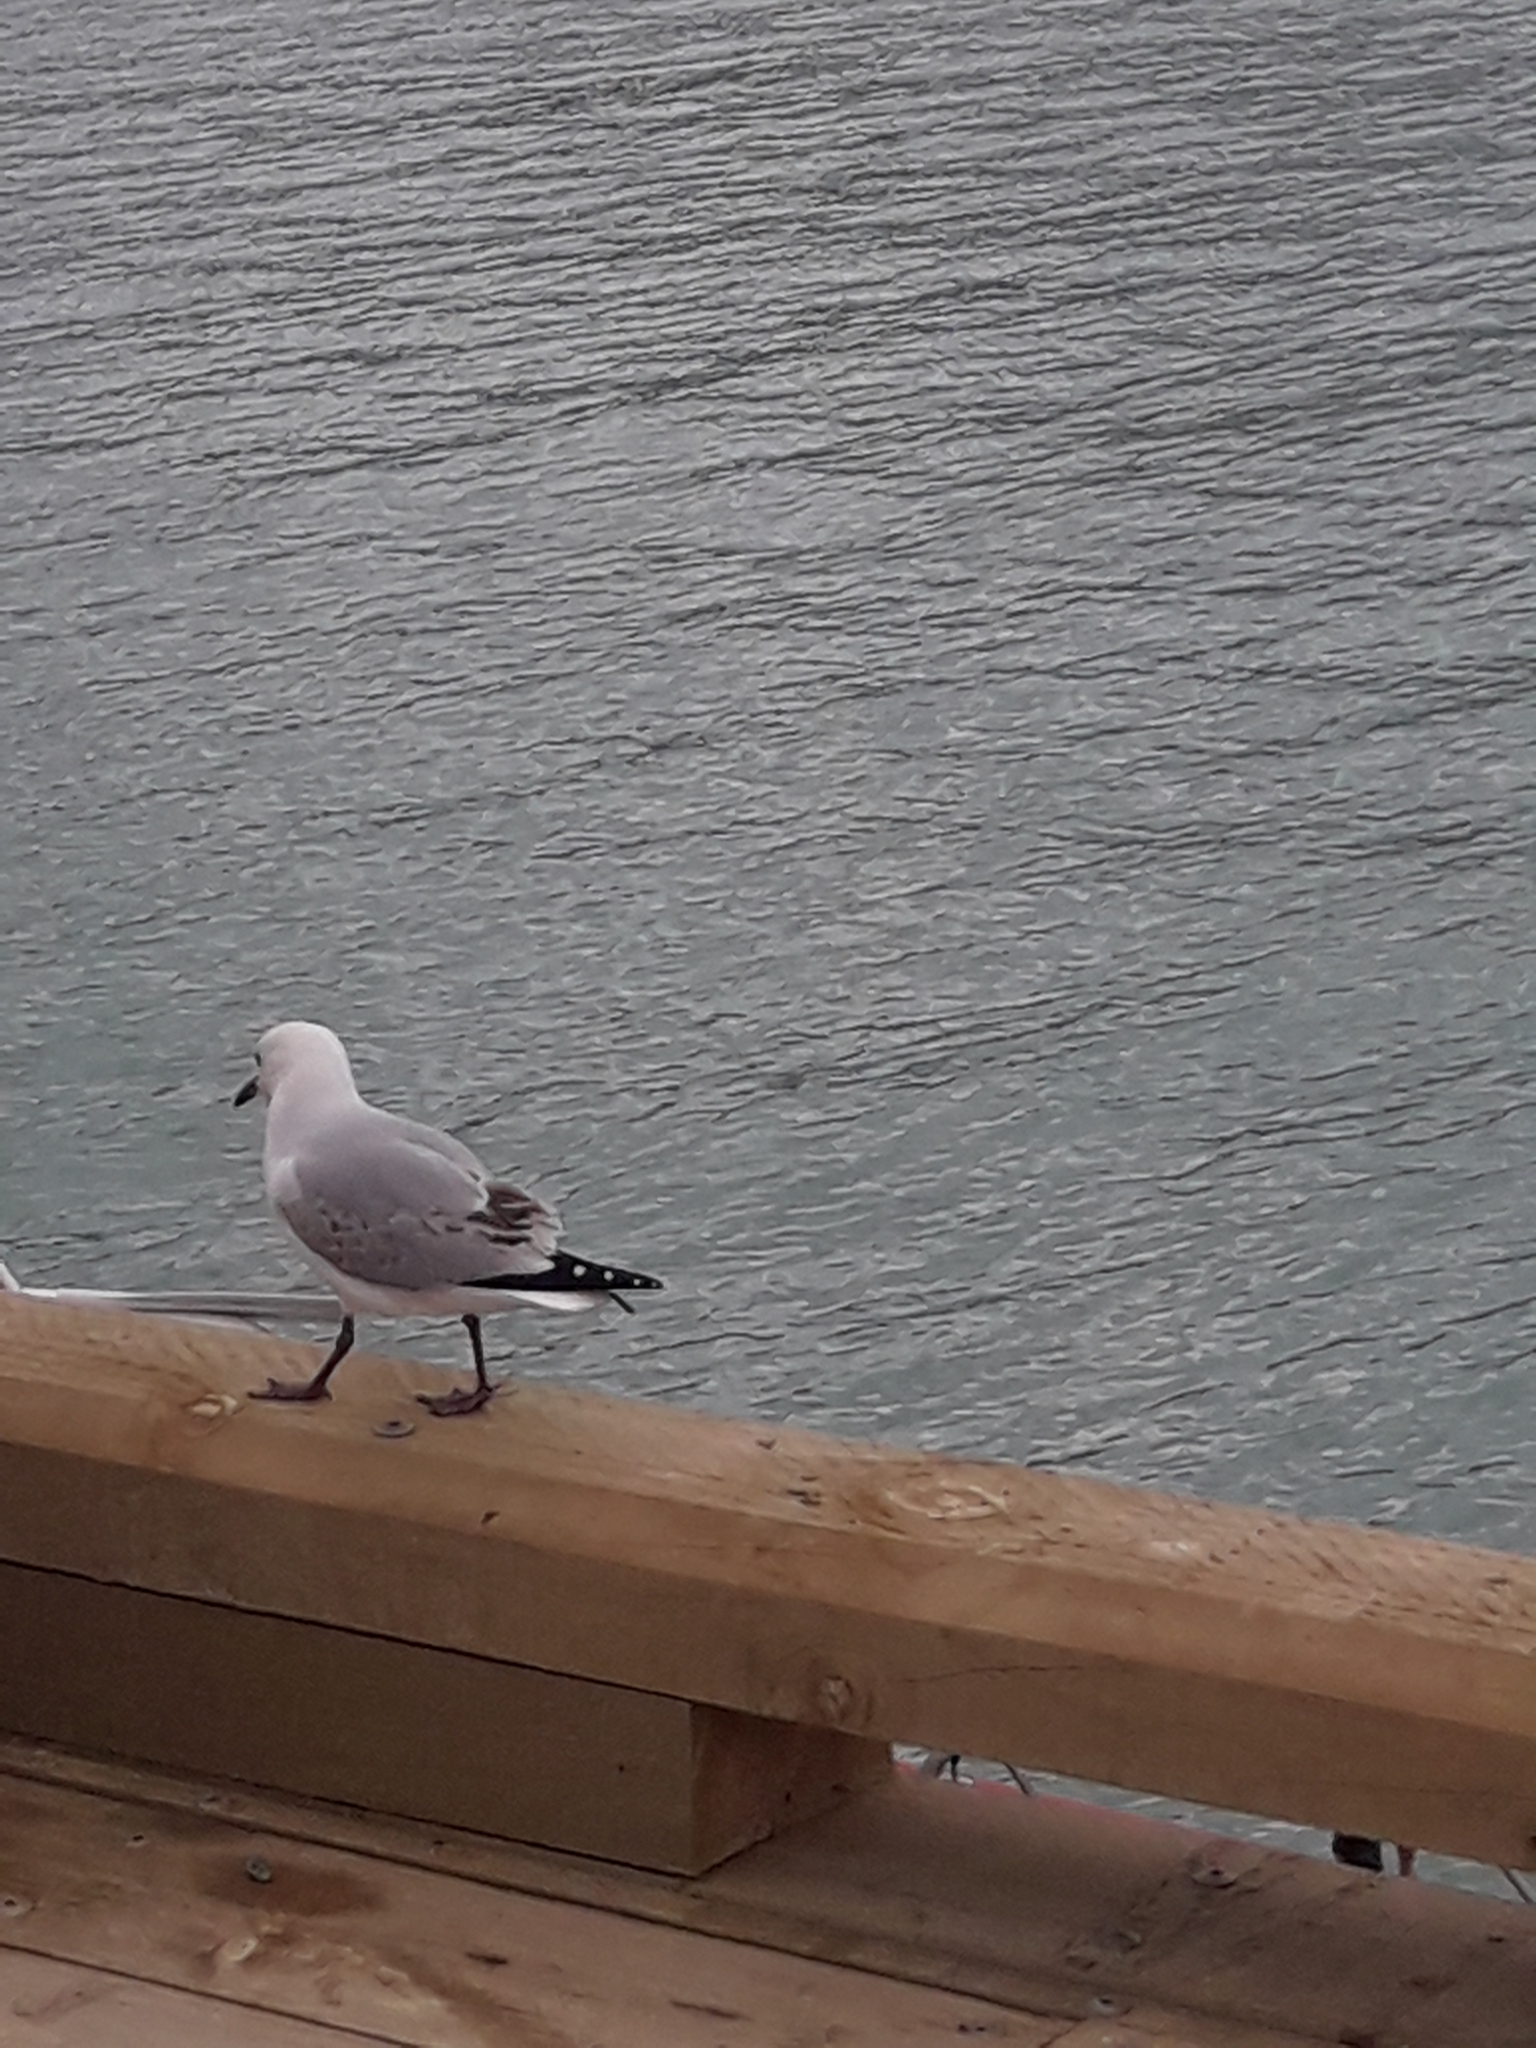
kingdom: Animalia
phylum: Chordata
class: Aves
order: Charadriiformes
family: Laridae
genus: Chroicocephalus
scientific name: Chroicocephalus bulleri
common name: Black-billed gull
